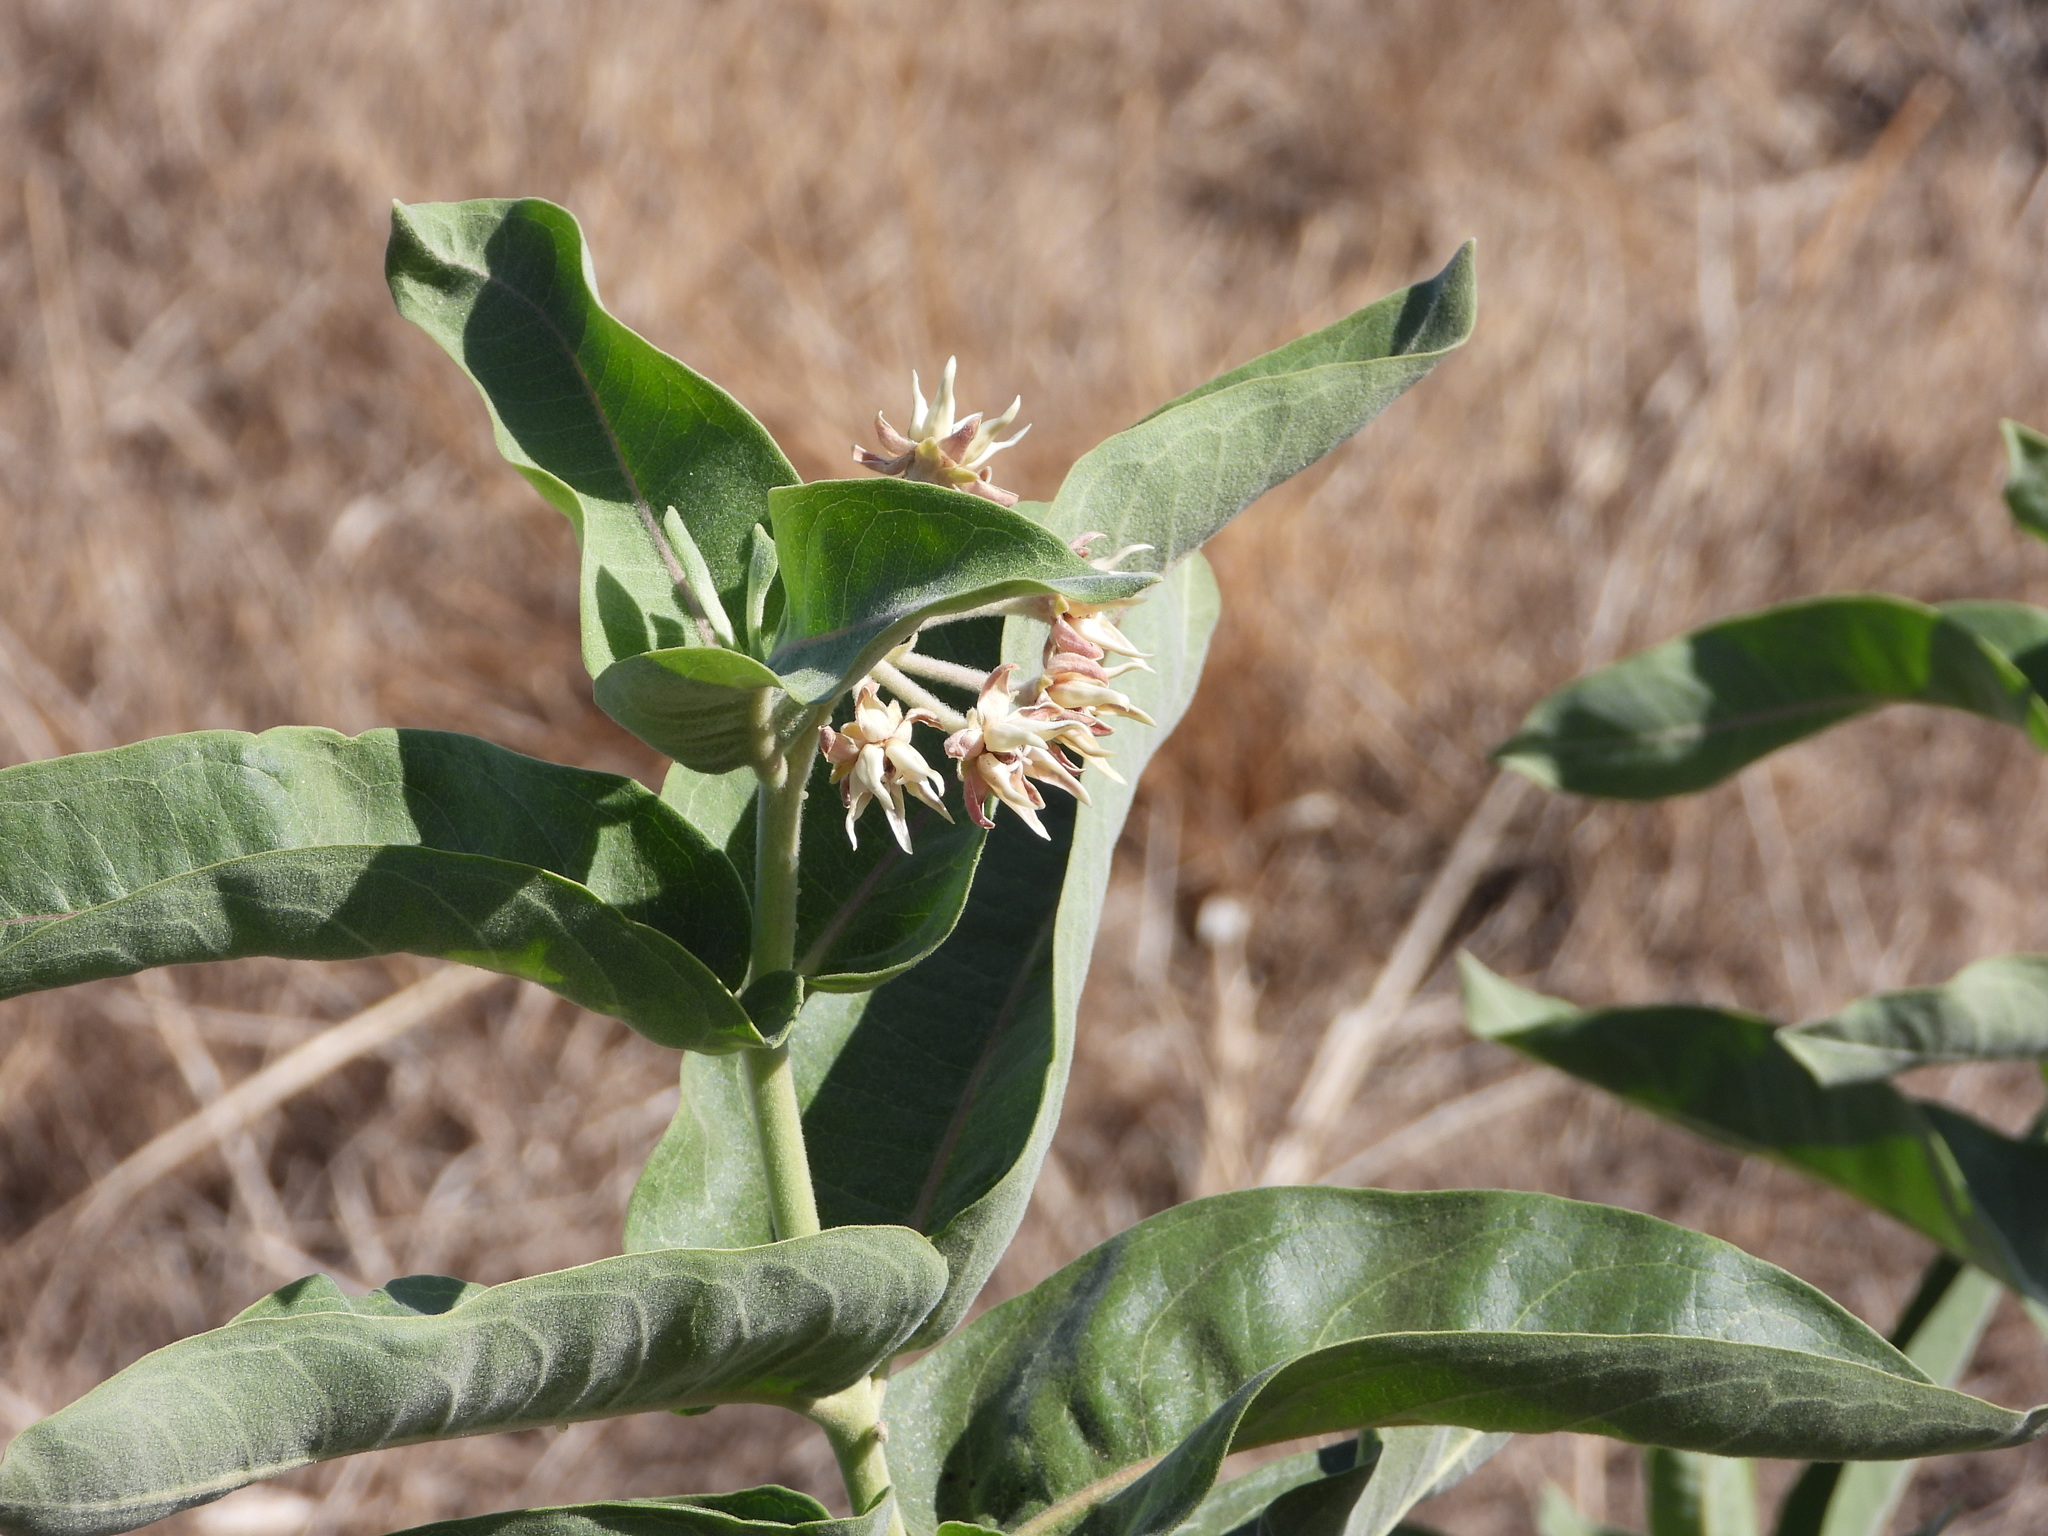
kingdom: Plantae
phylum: Tracheophyta
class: Magnoliopsida
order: Gentianales
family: Apocynaceae
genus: Asclepias
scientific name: Asclepias speciosa
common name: Showy milkweed
